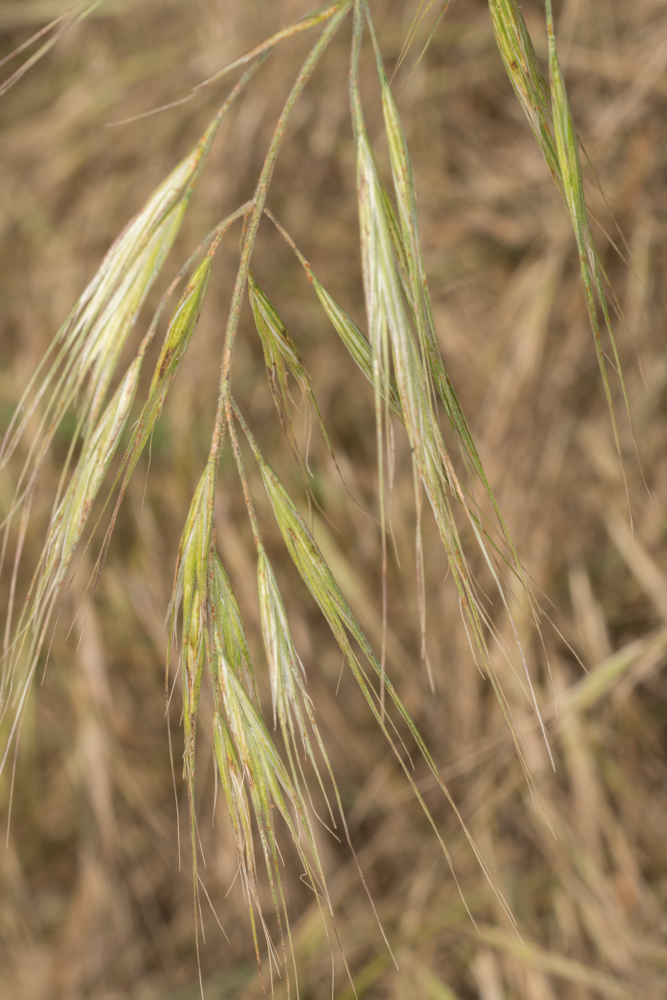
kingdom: Plantae
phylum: Tracheophyta
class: Liliopsida
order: Poales
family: Poaceae
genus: Bromus
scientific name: Bromus diandrus
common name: Ripgut brome
